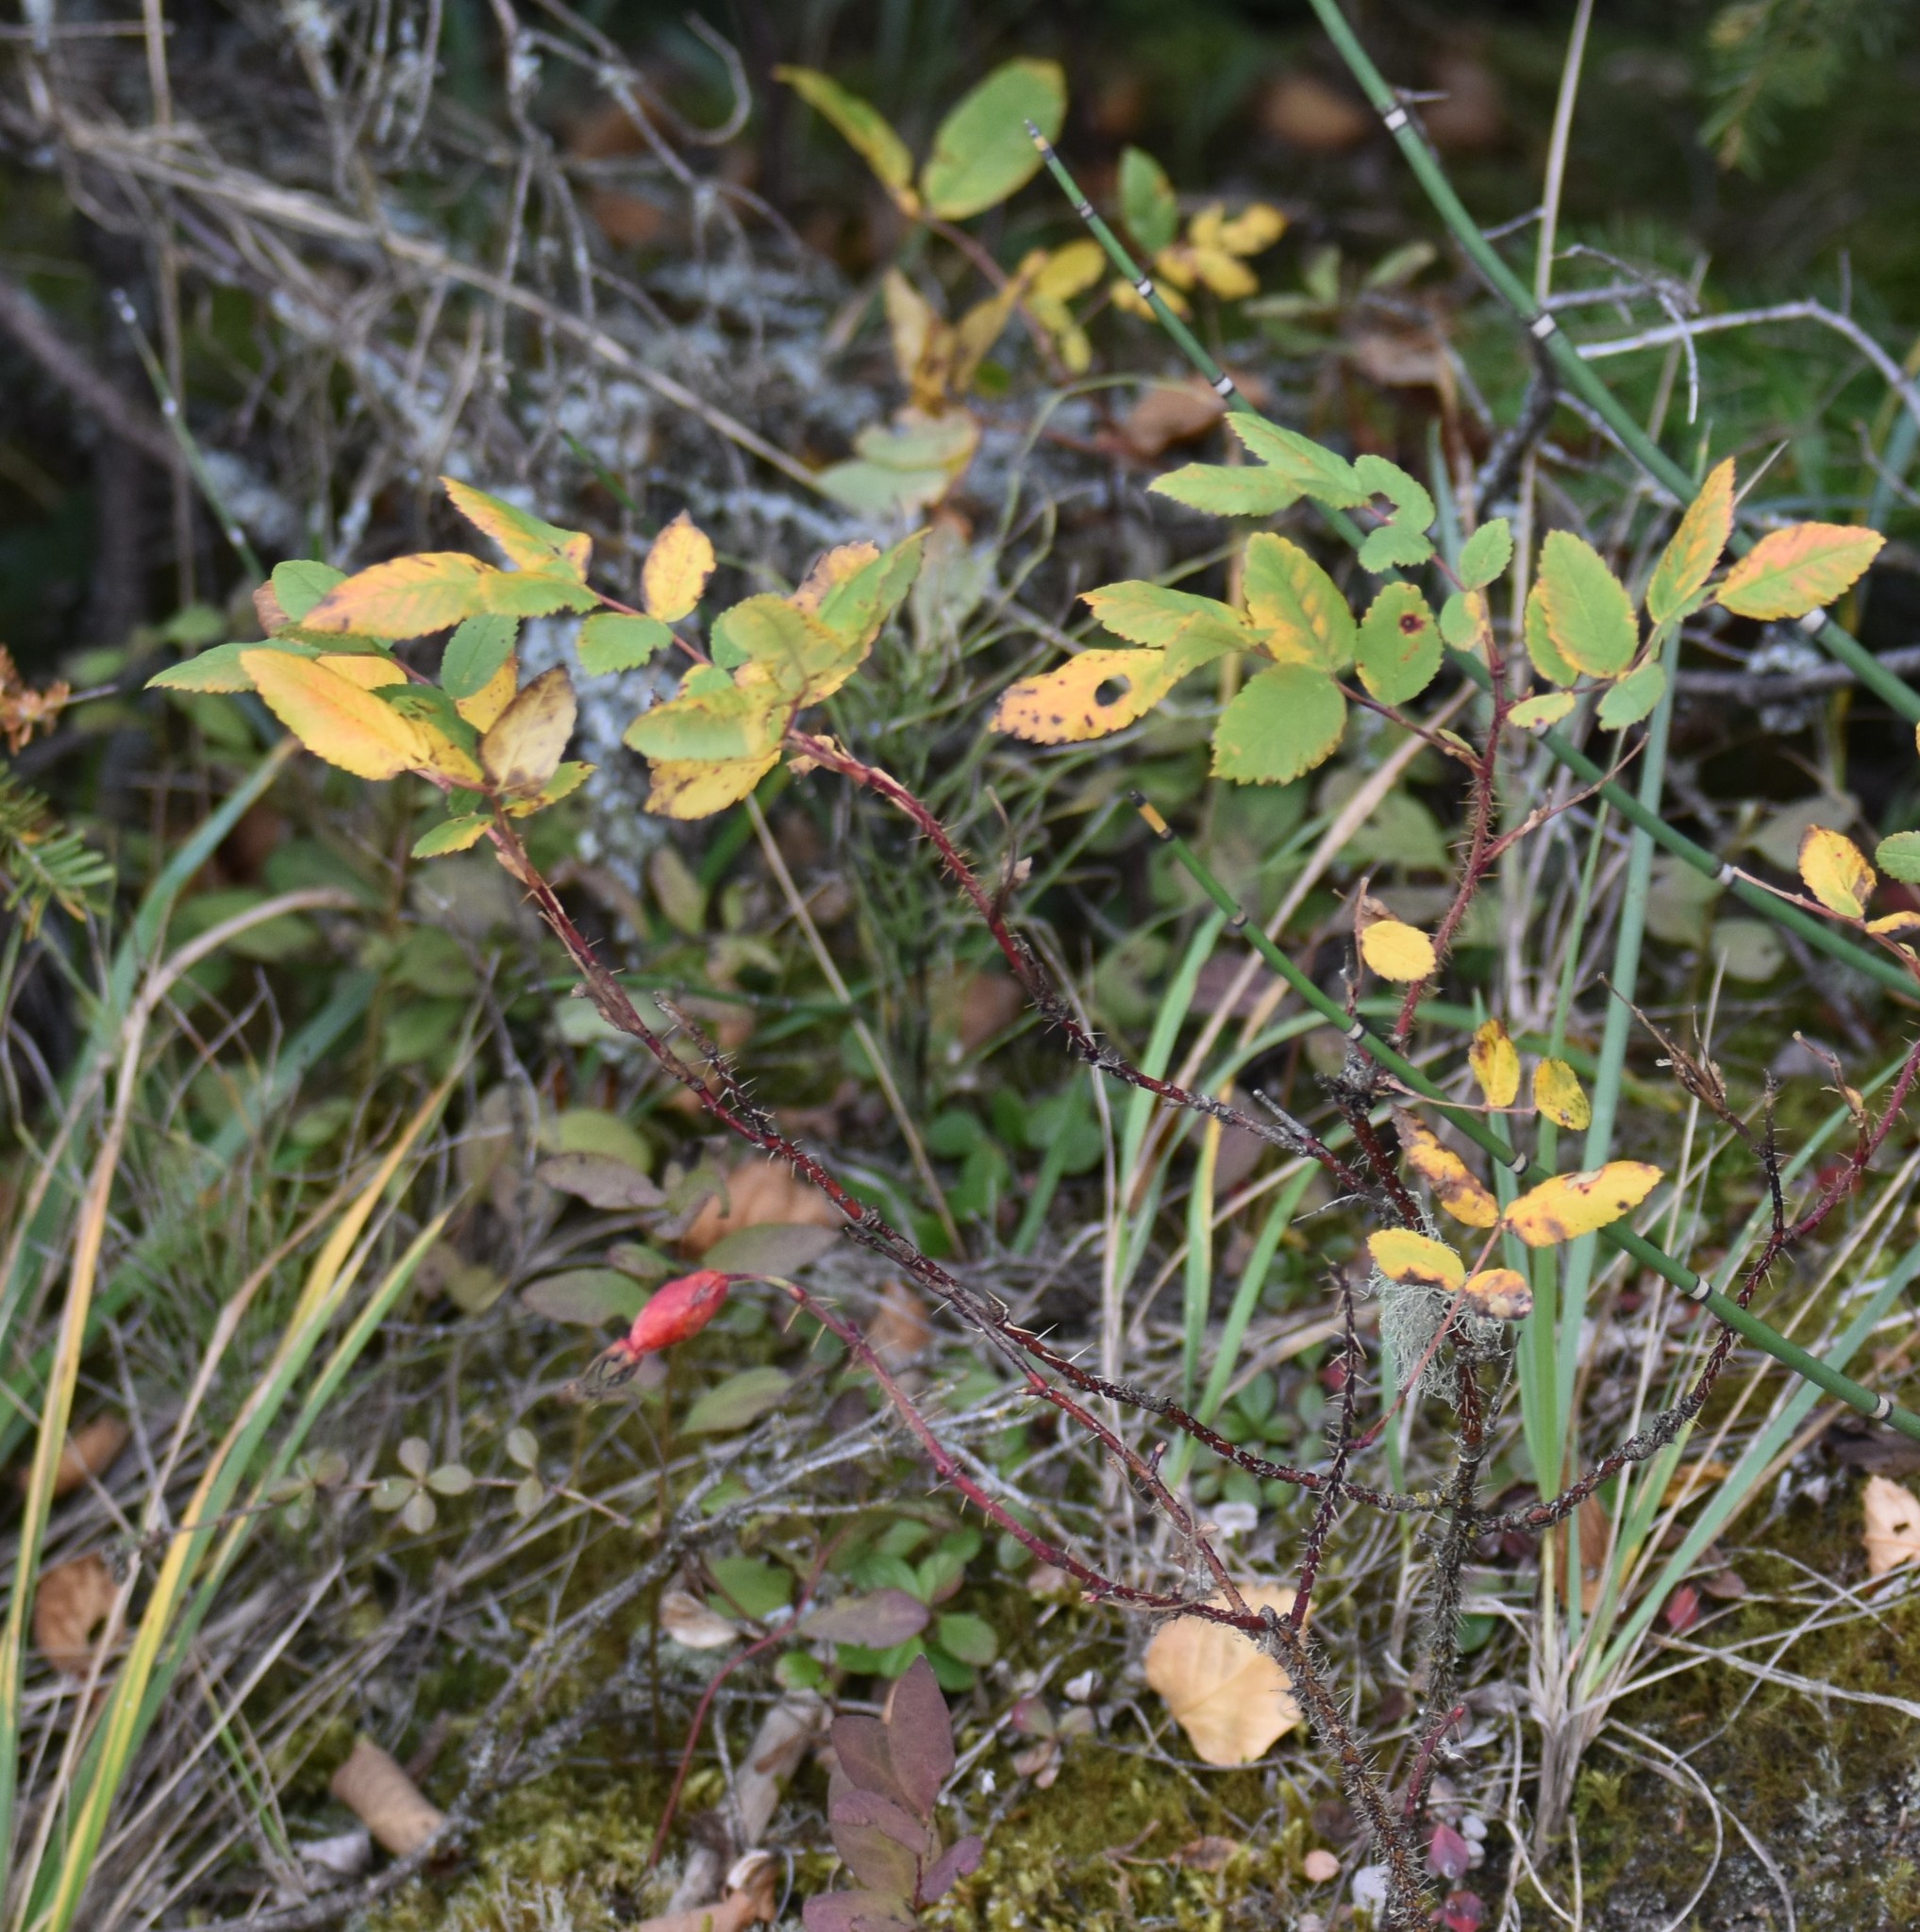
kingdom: Plantae
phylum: Tracheophyta
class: Magnoliopsida
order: Rosales
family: Rosaceae
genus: Rosa
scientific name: Rosa acicularis
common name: Prickly rose
